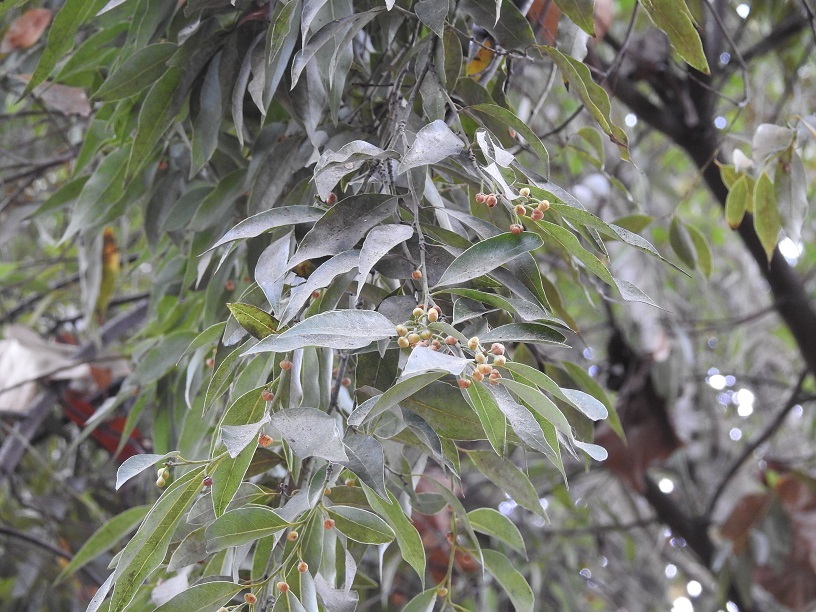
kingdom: Plantae
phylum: Tracheophyta
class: Magnoliopsida
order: Laurales
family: Lauraceae
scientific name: Lauraceae
